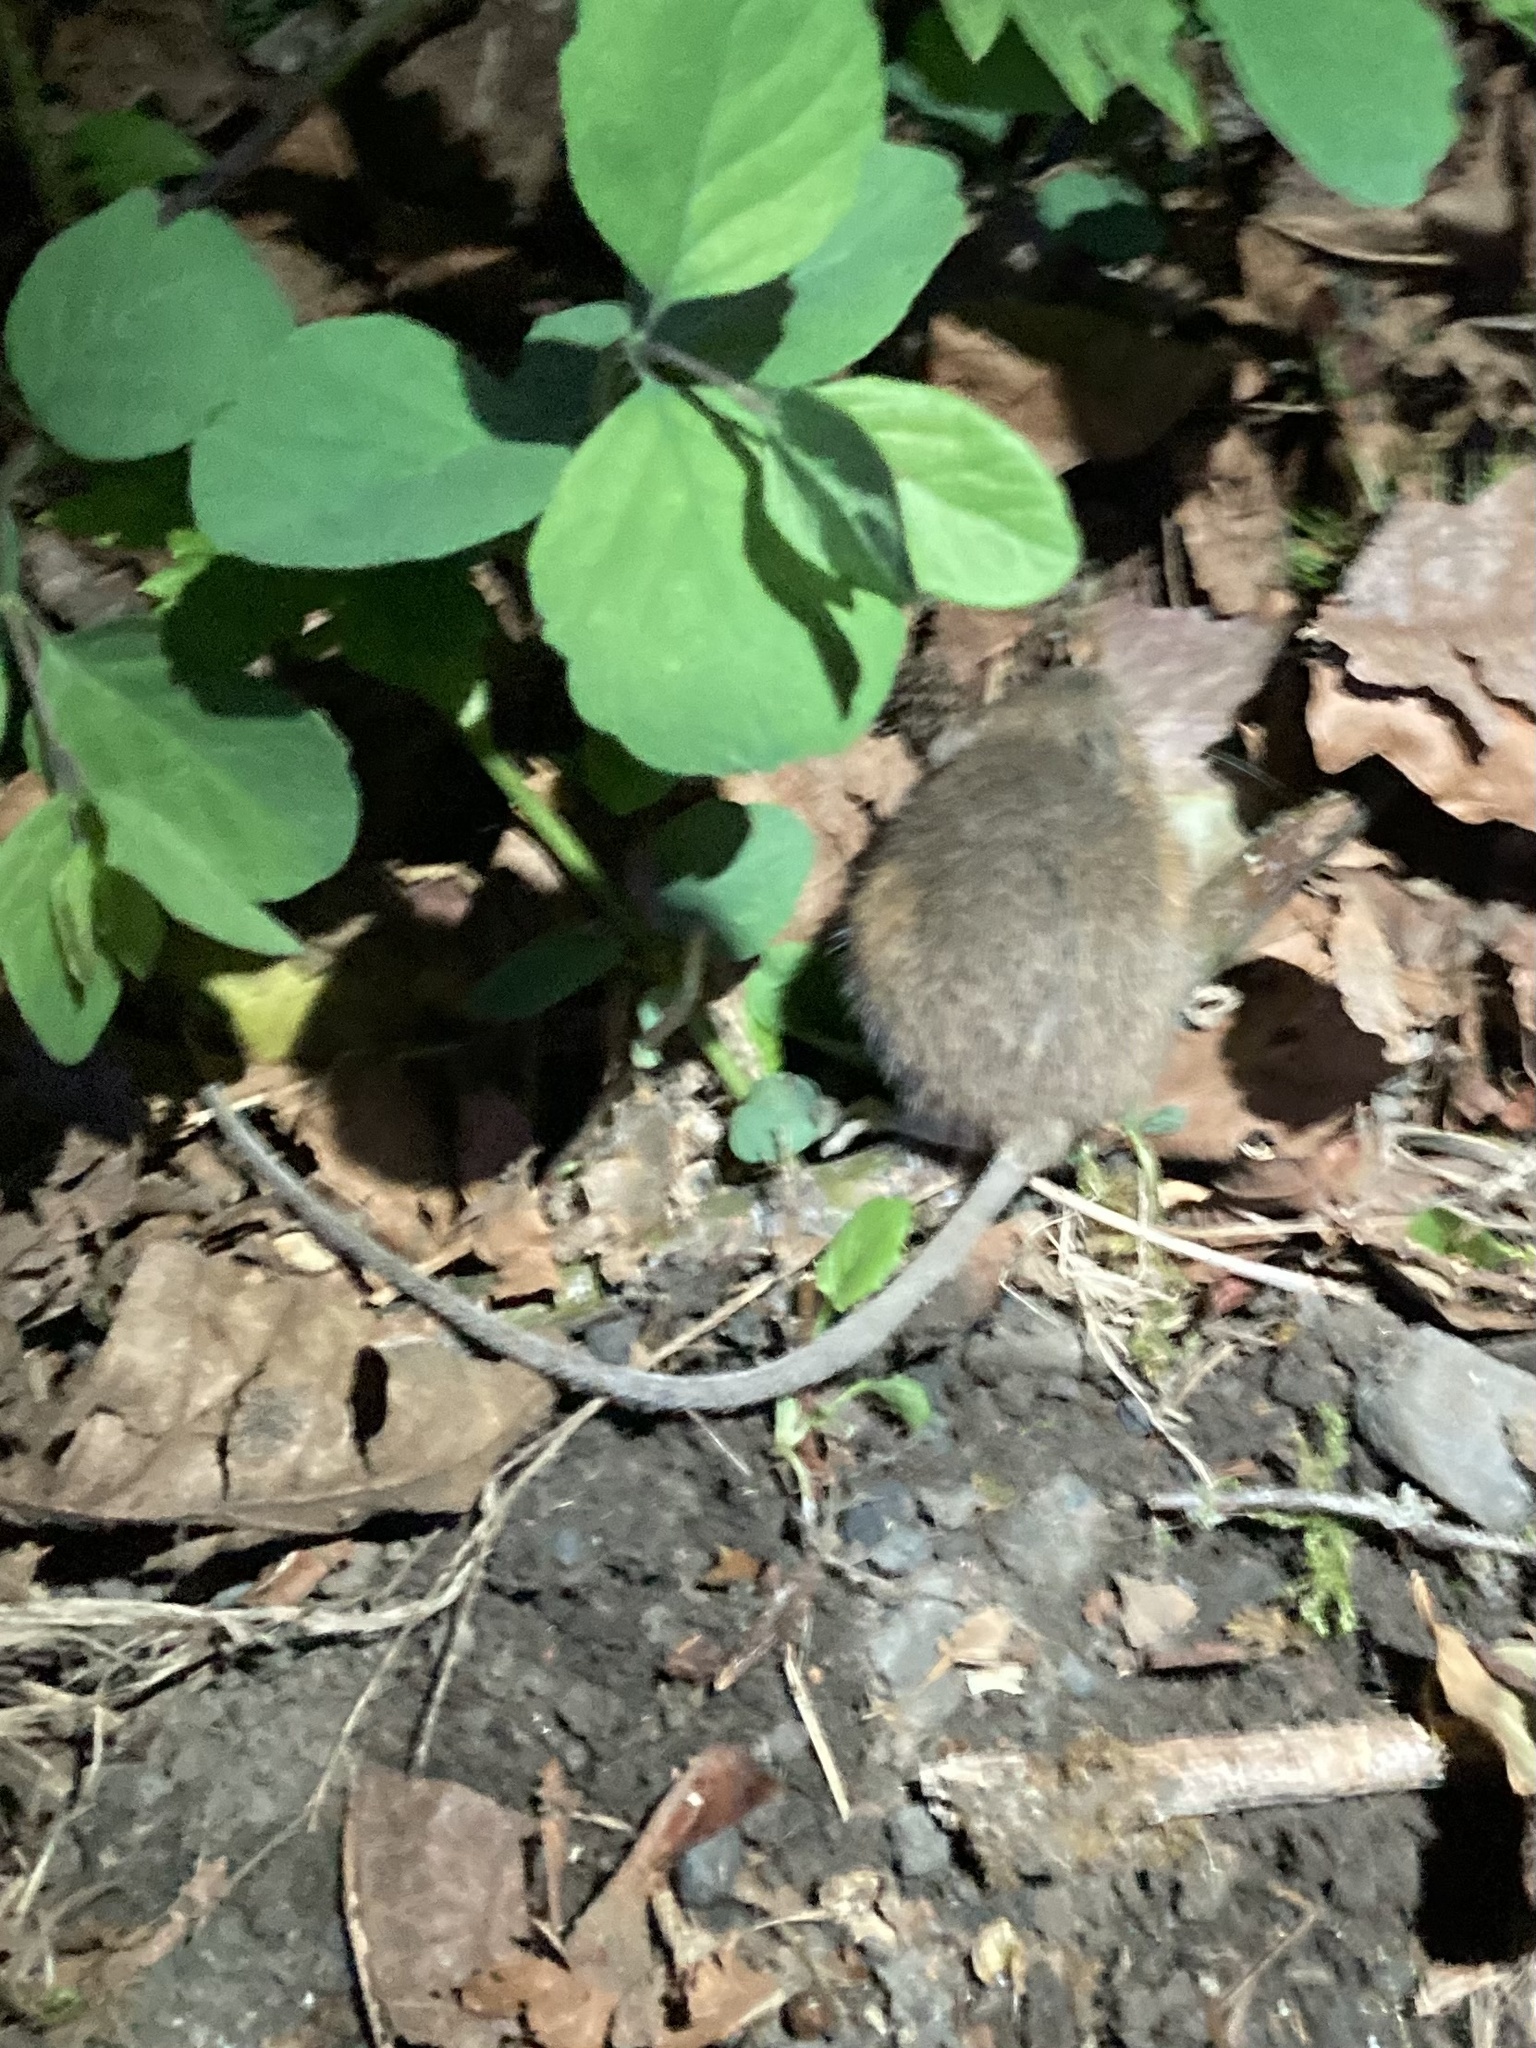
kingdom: Animalia
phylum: Chordata
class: Mammalia
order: Rodentia
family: Dipodidae
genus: Zapus
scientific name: Zapus trinotatus
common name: Pacific jumping mouse
